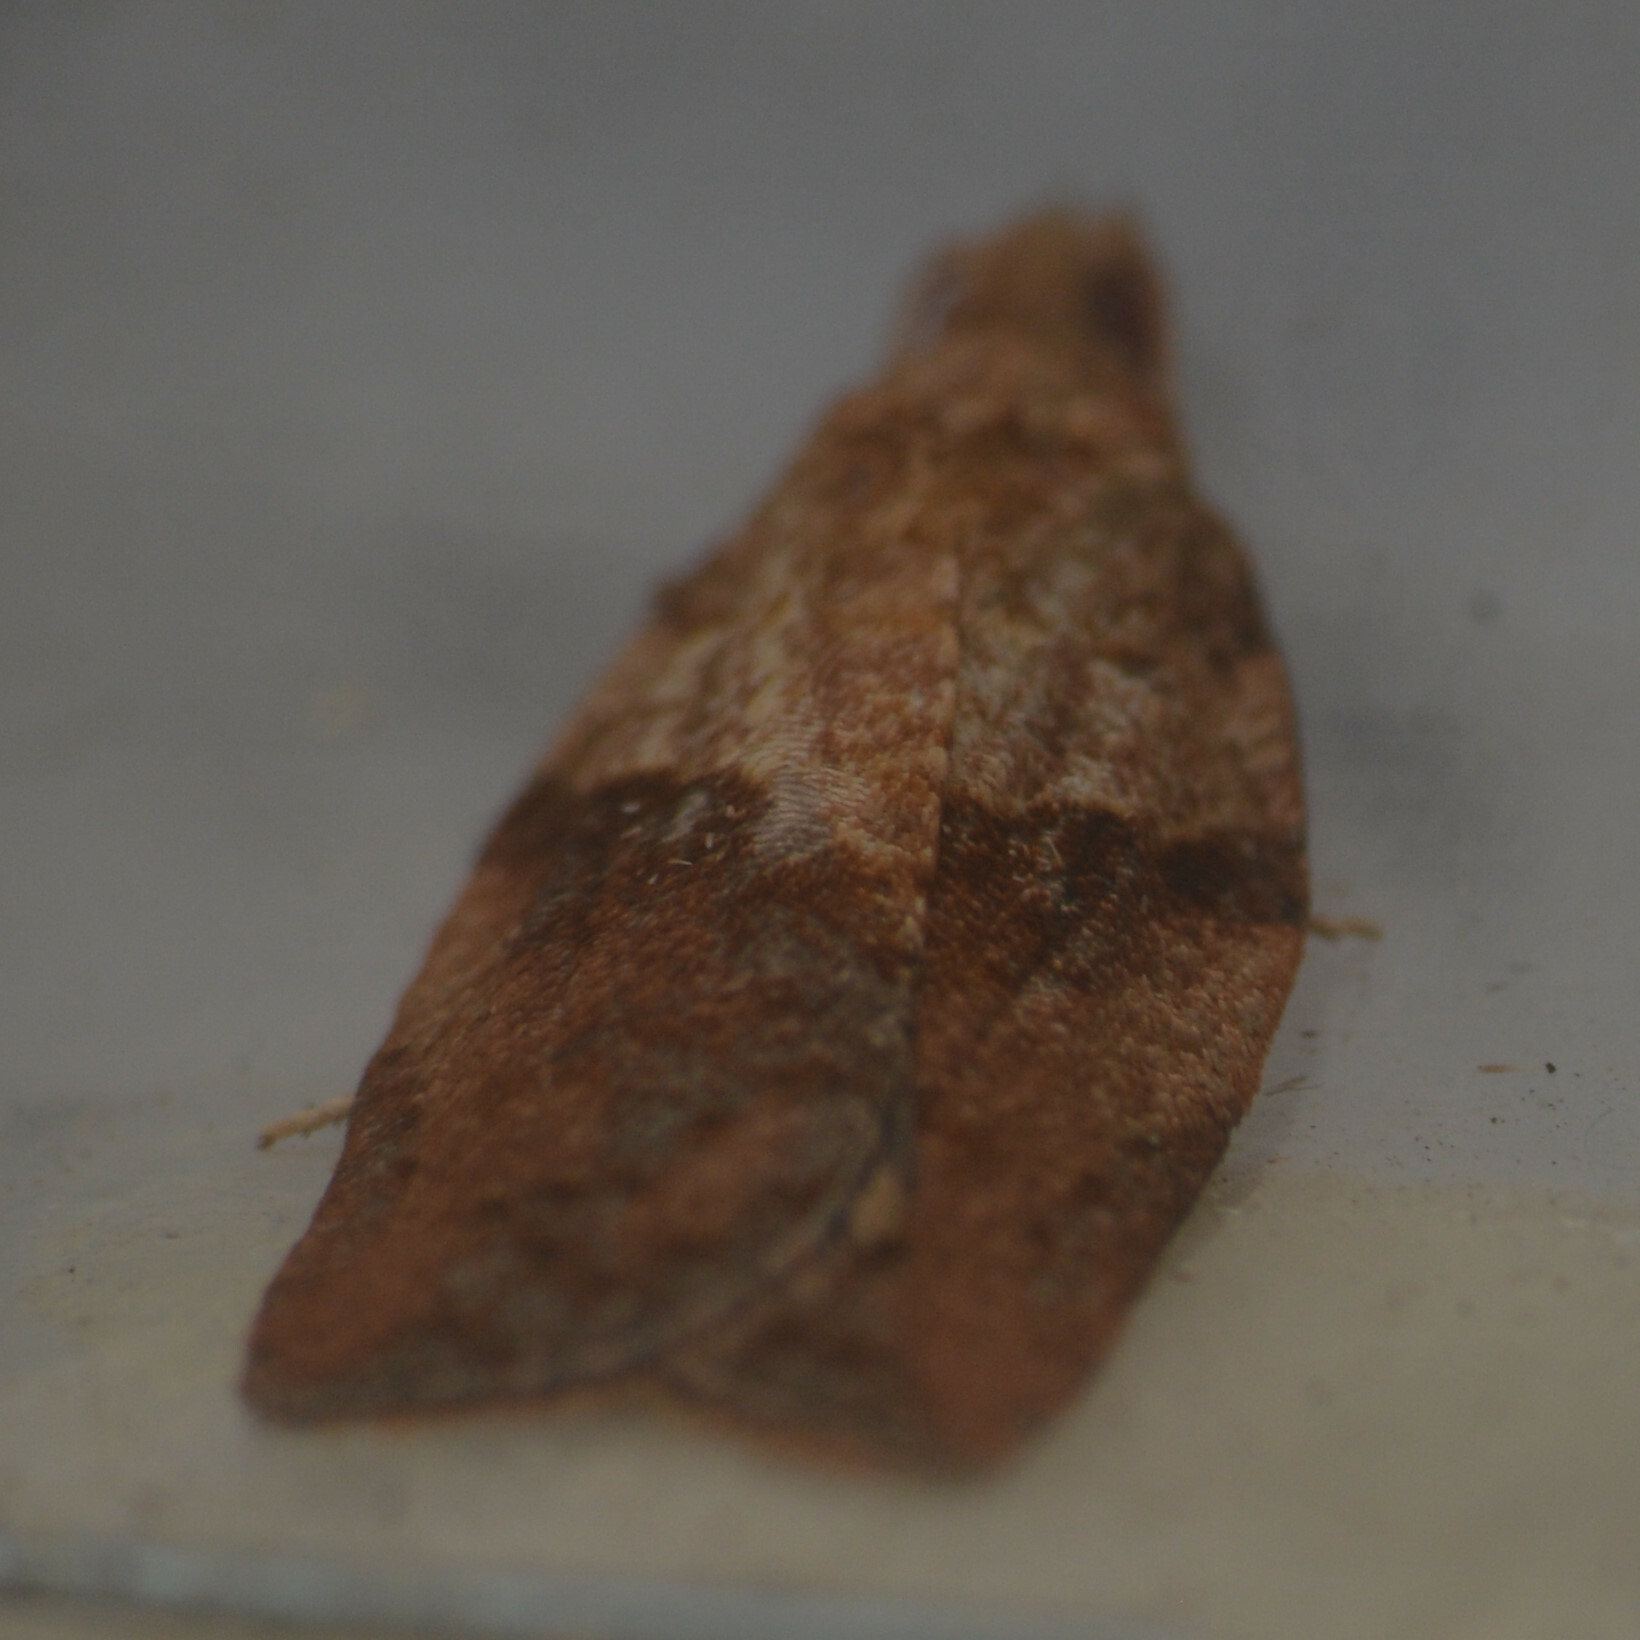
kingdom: Animalia
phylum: Arthropoda
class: Insecta
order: Lepidoptera
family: Tortricidae
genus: Epiphyas
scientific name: Epiphyas postvittana
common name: Light brown apple moth
